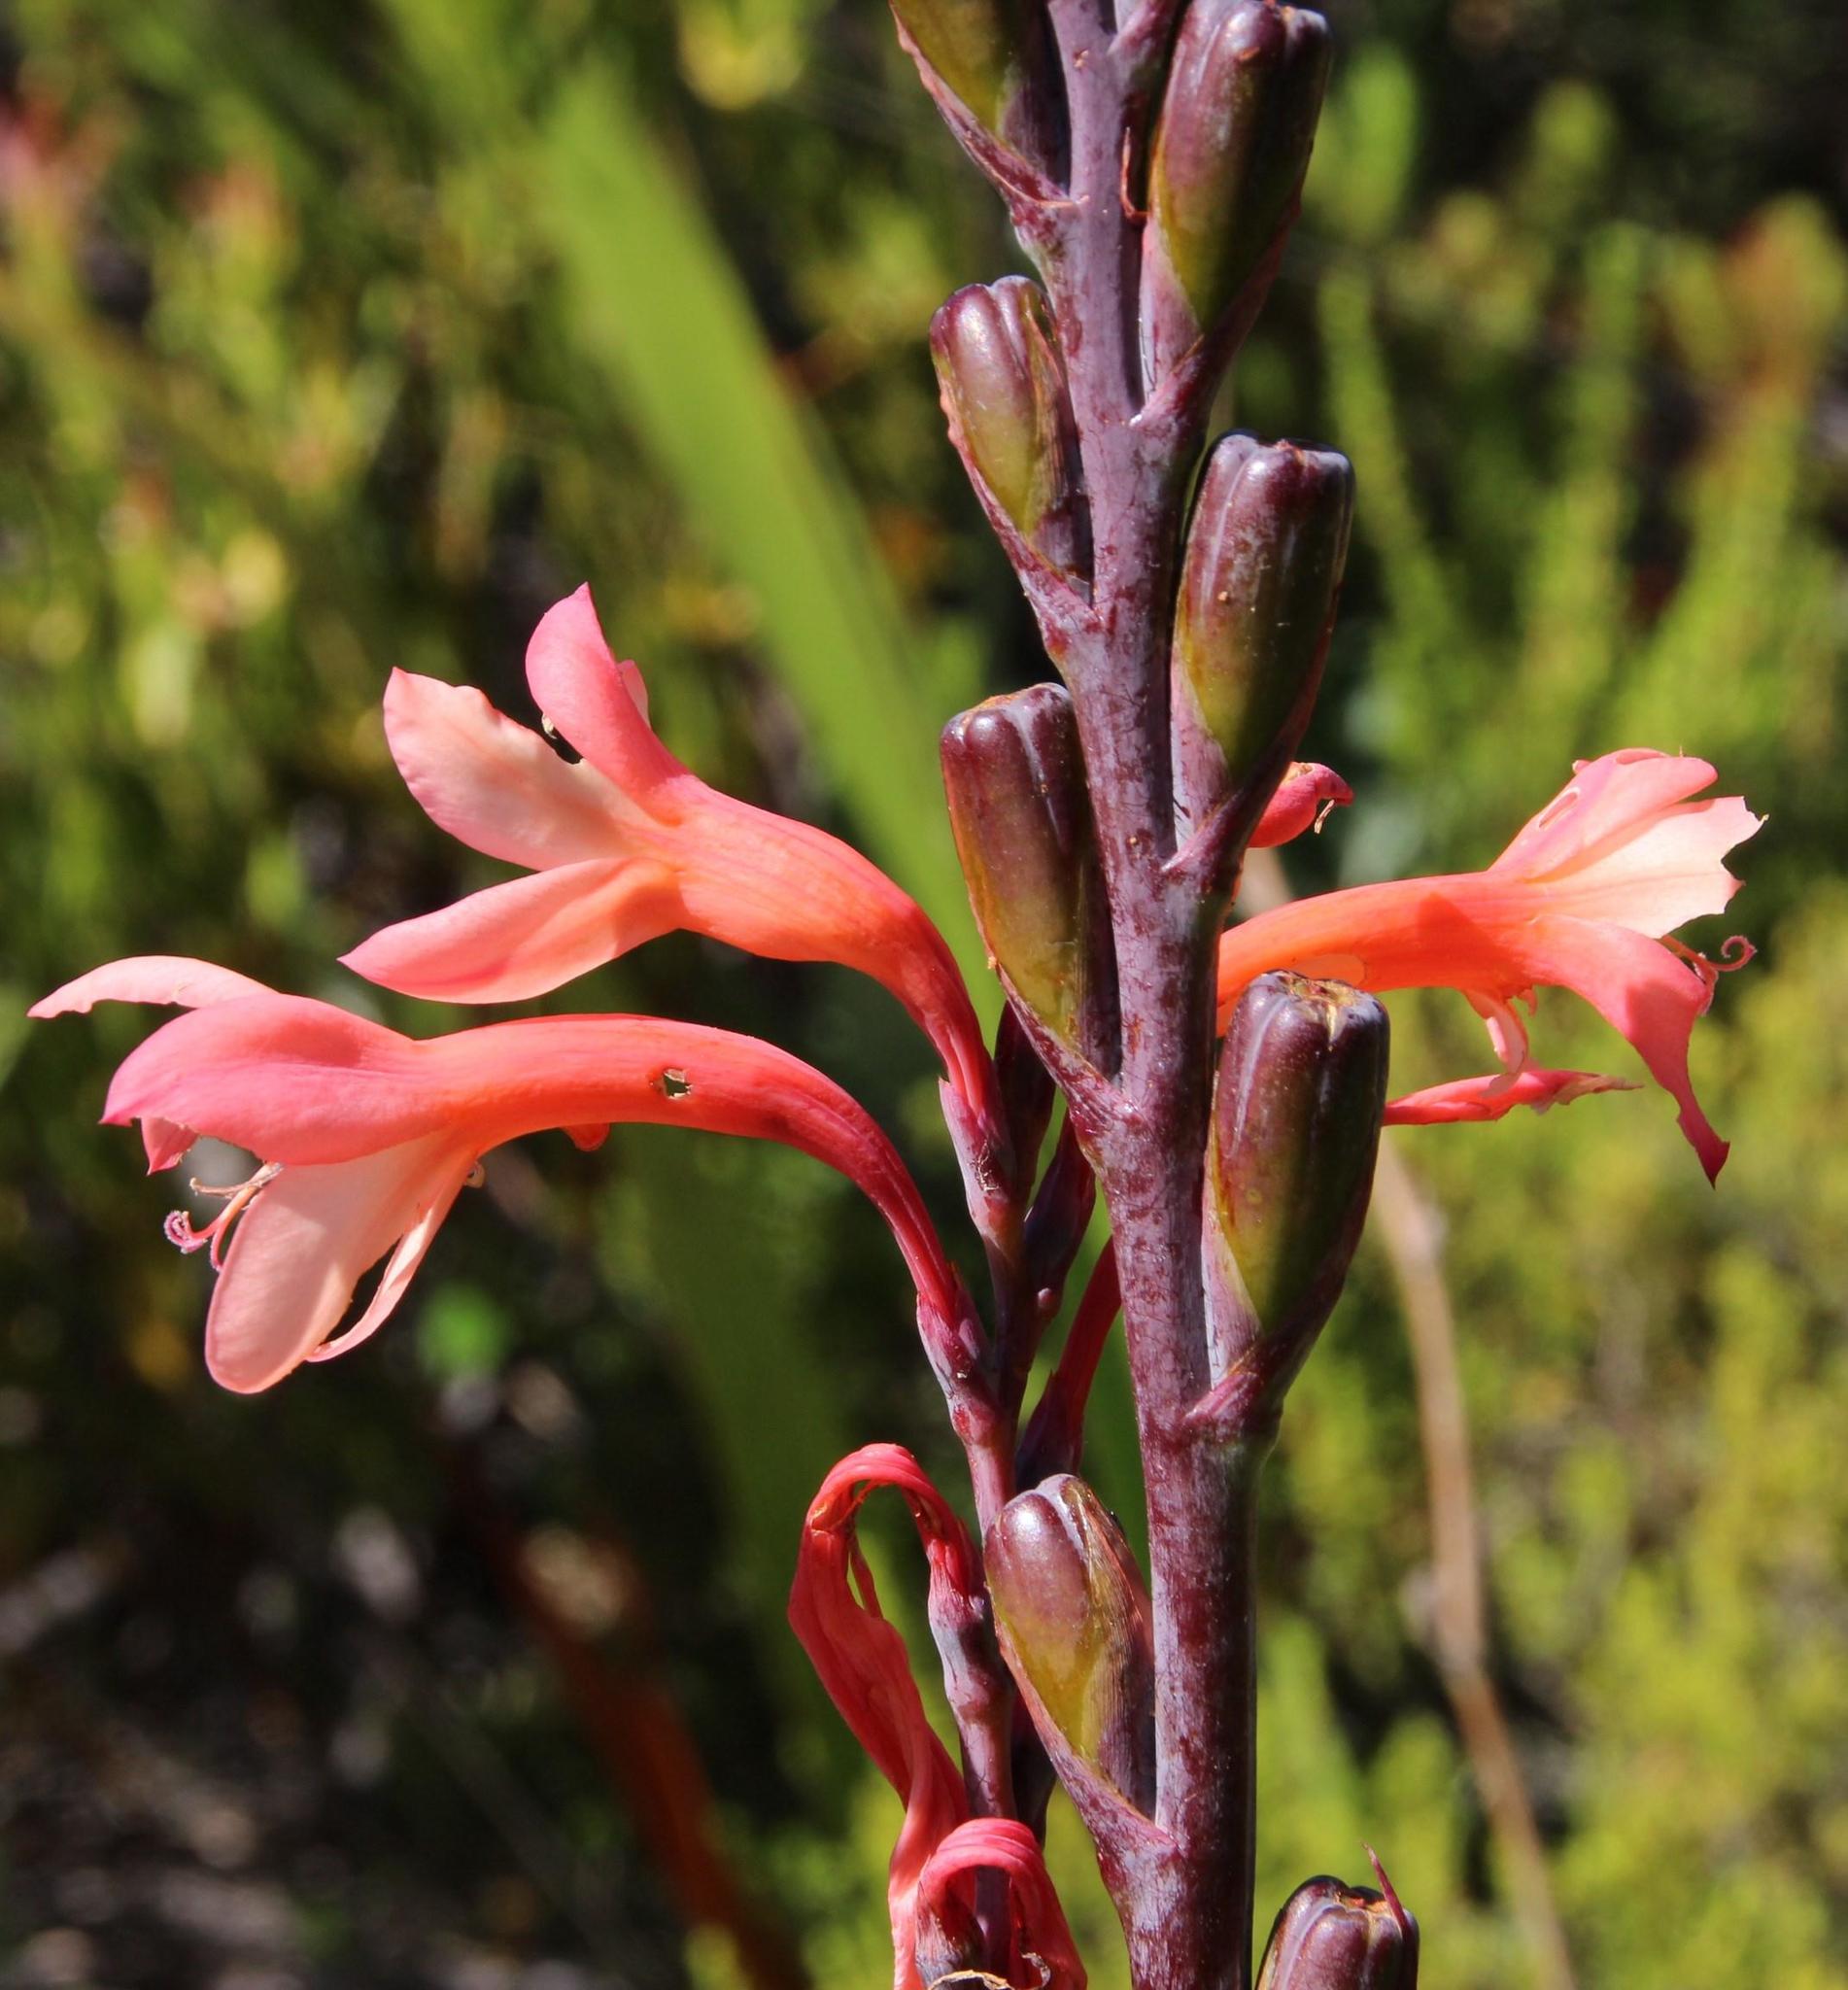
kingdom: Plantae
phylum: Tracheophyta
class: Liliopsida
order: Asparagales
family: Iridaceae
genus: Watsonia
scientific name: Watsonia tabularis
